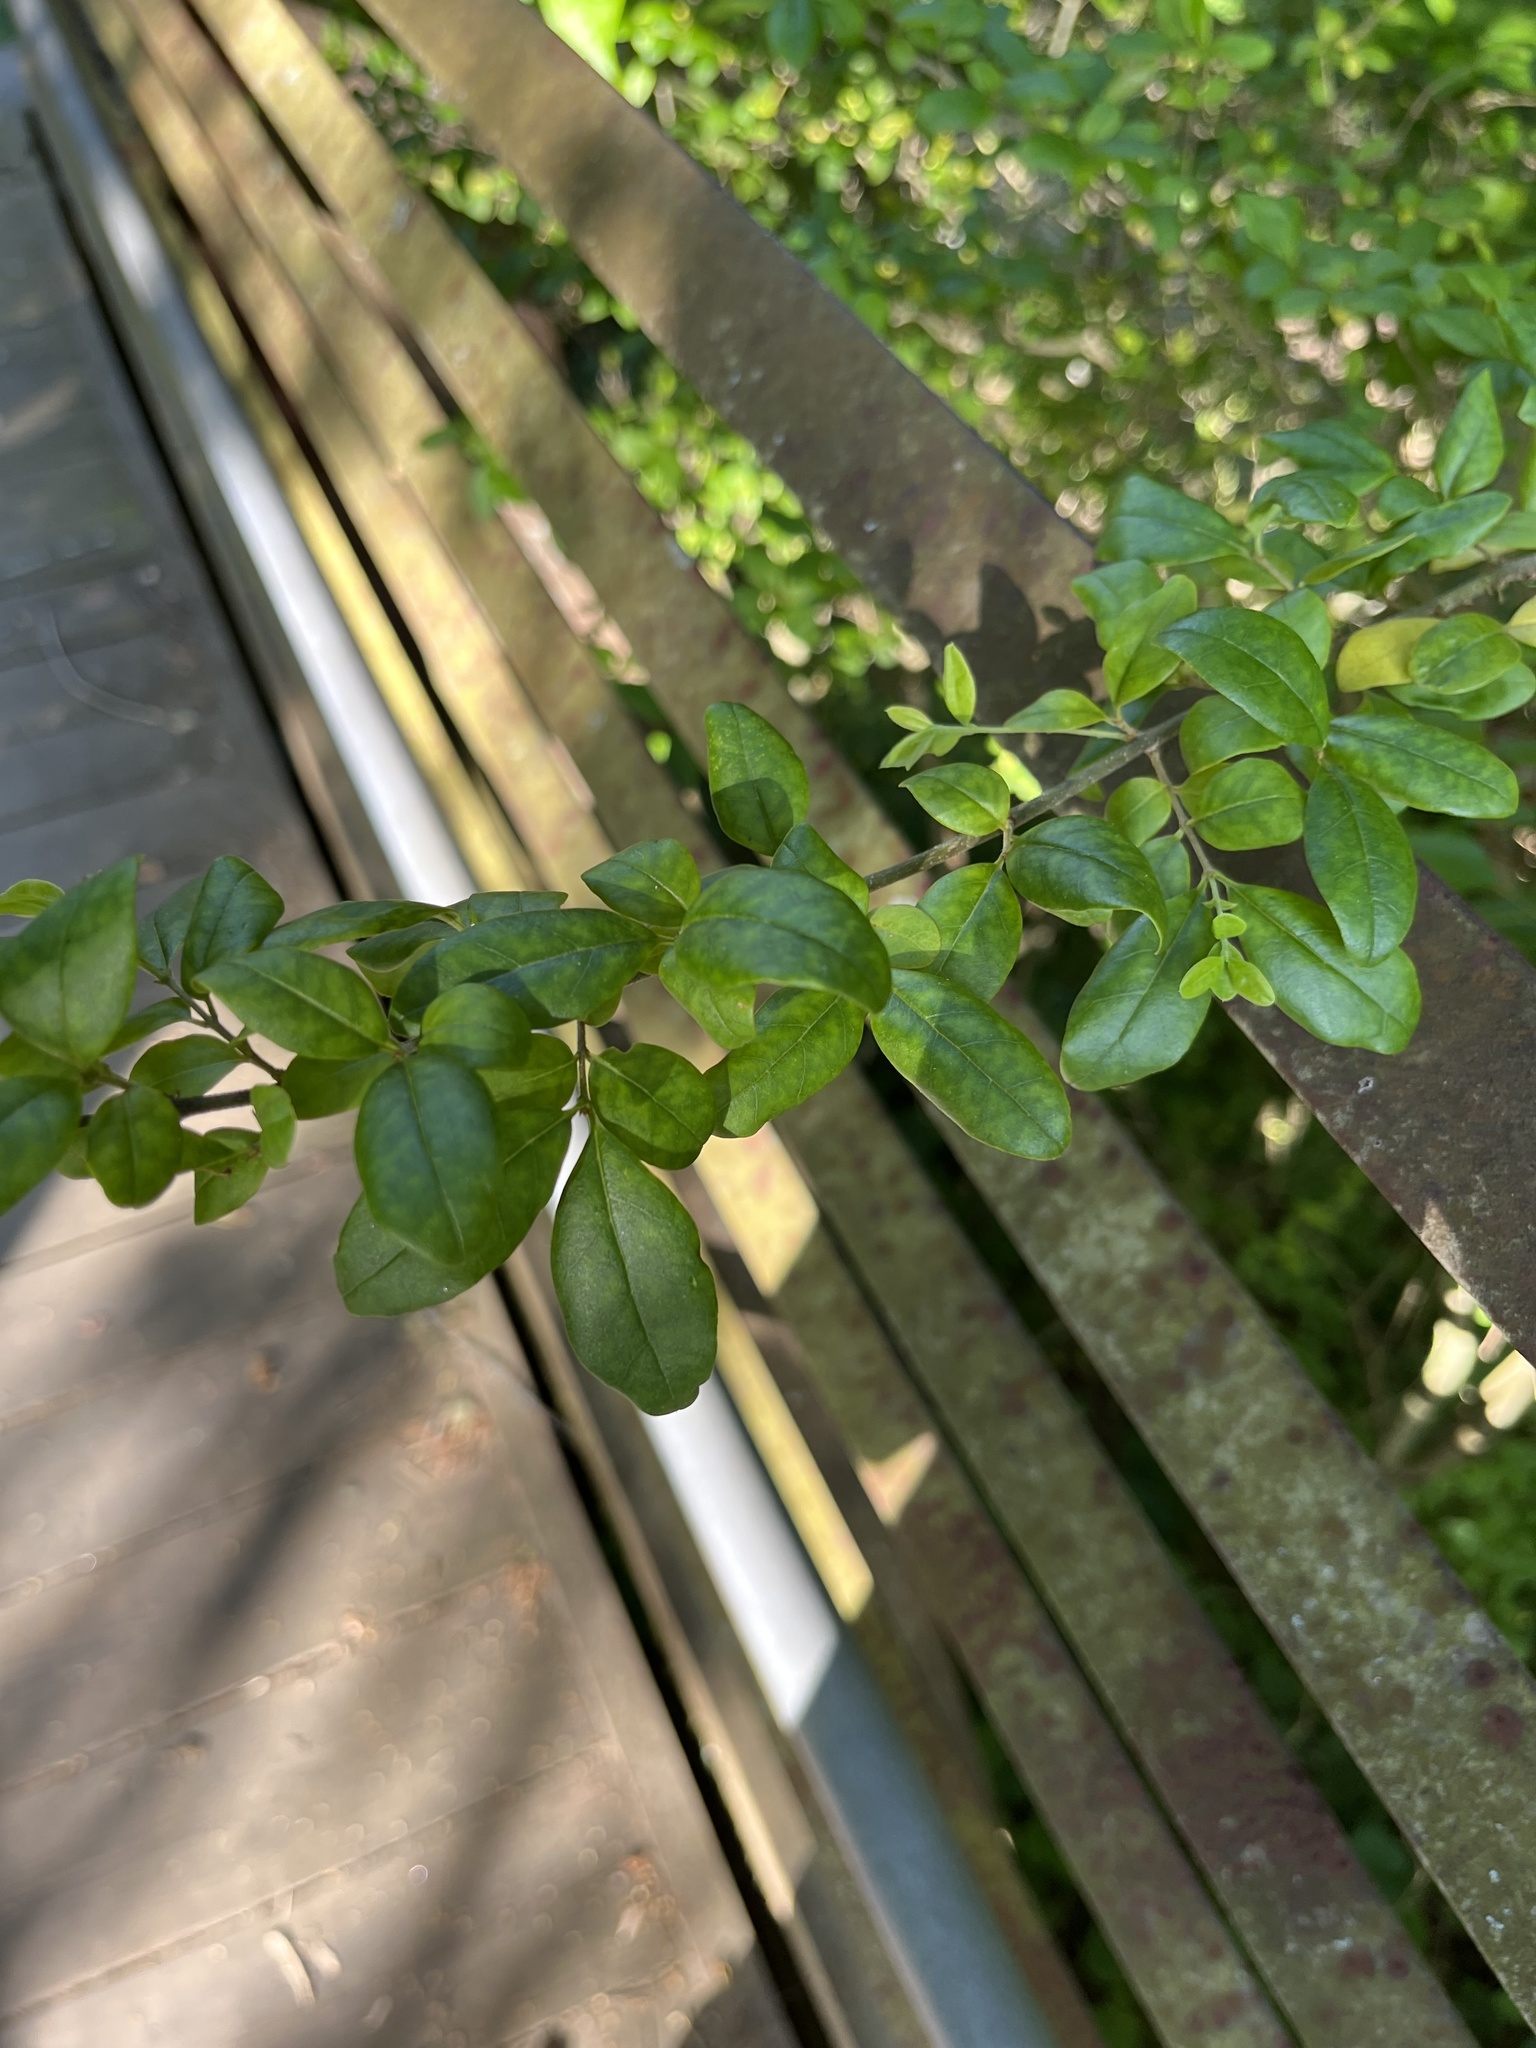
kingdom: Plantae
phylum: Tracheophyta
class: Magnoliopsida
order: Lamiales
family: Oleaceae
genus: Ligustrum
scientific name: Ligustrum sinense
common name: Chinese privet
